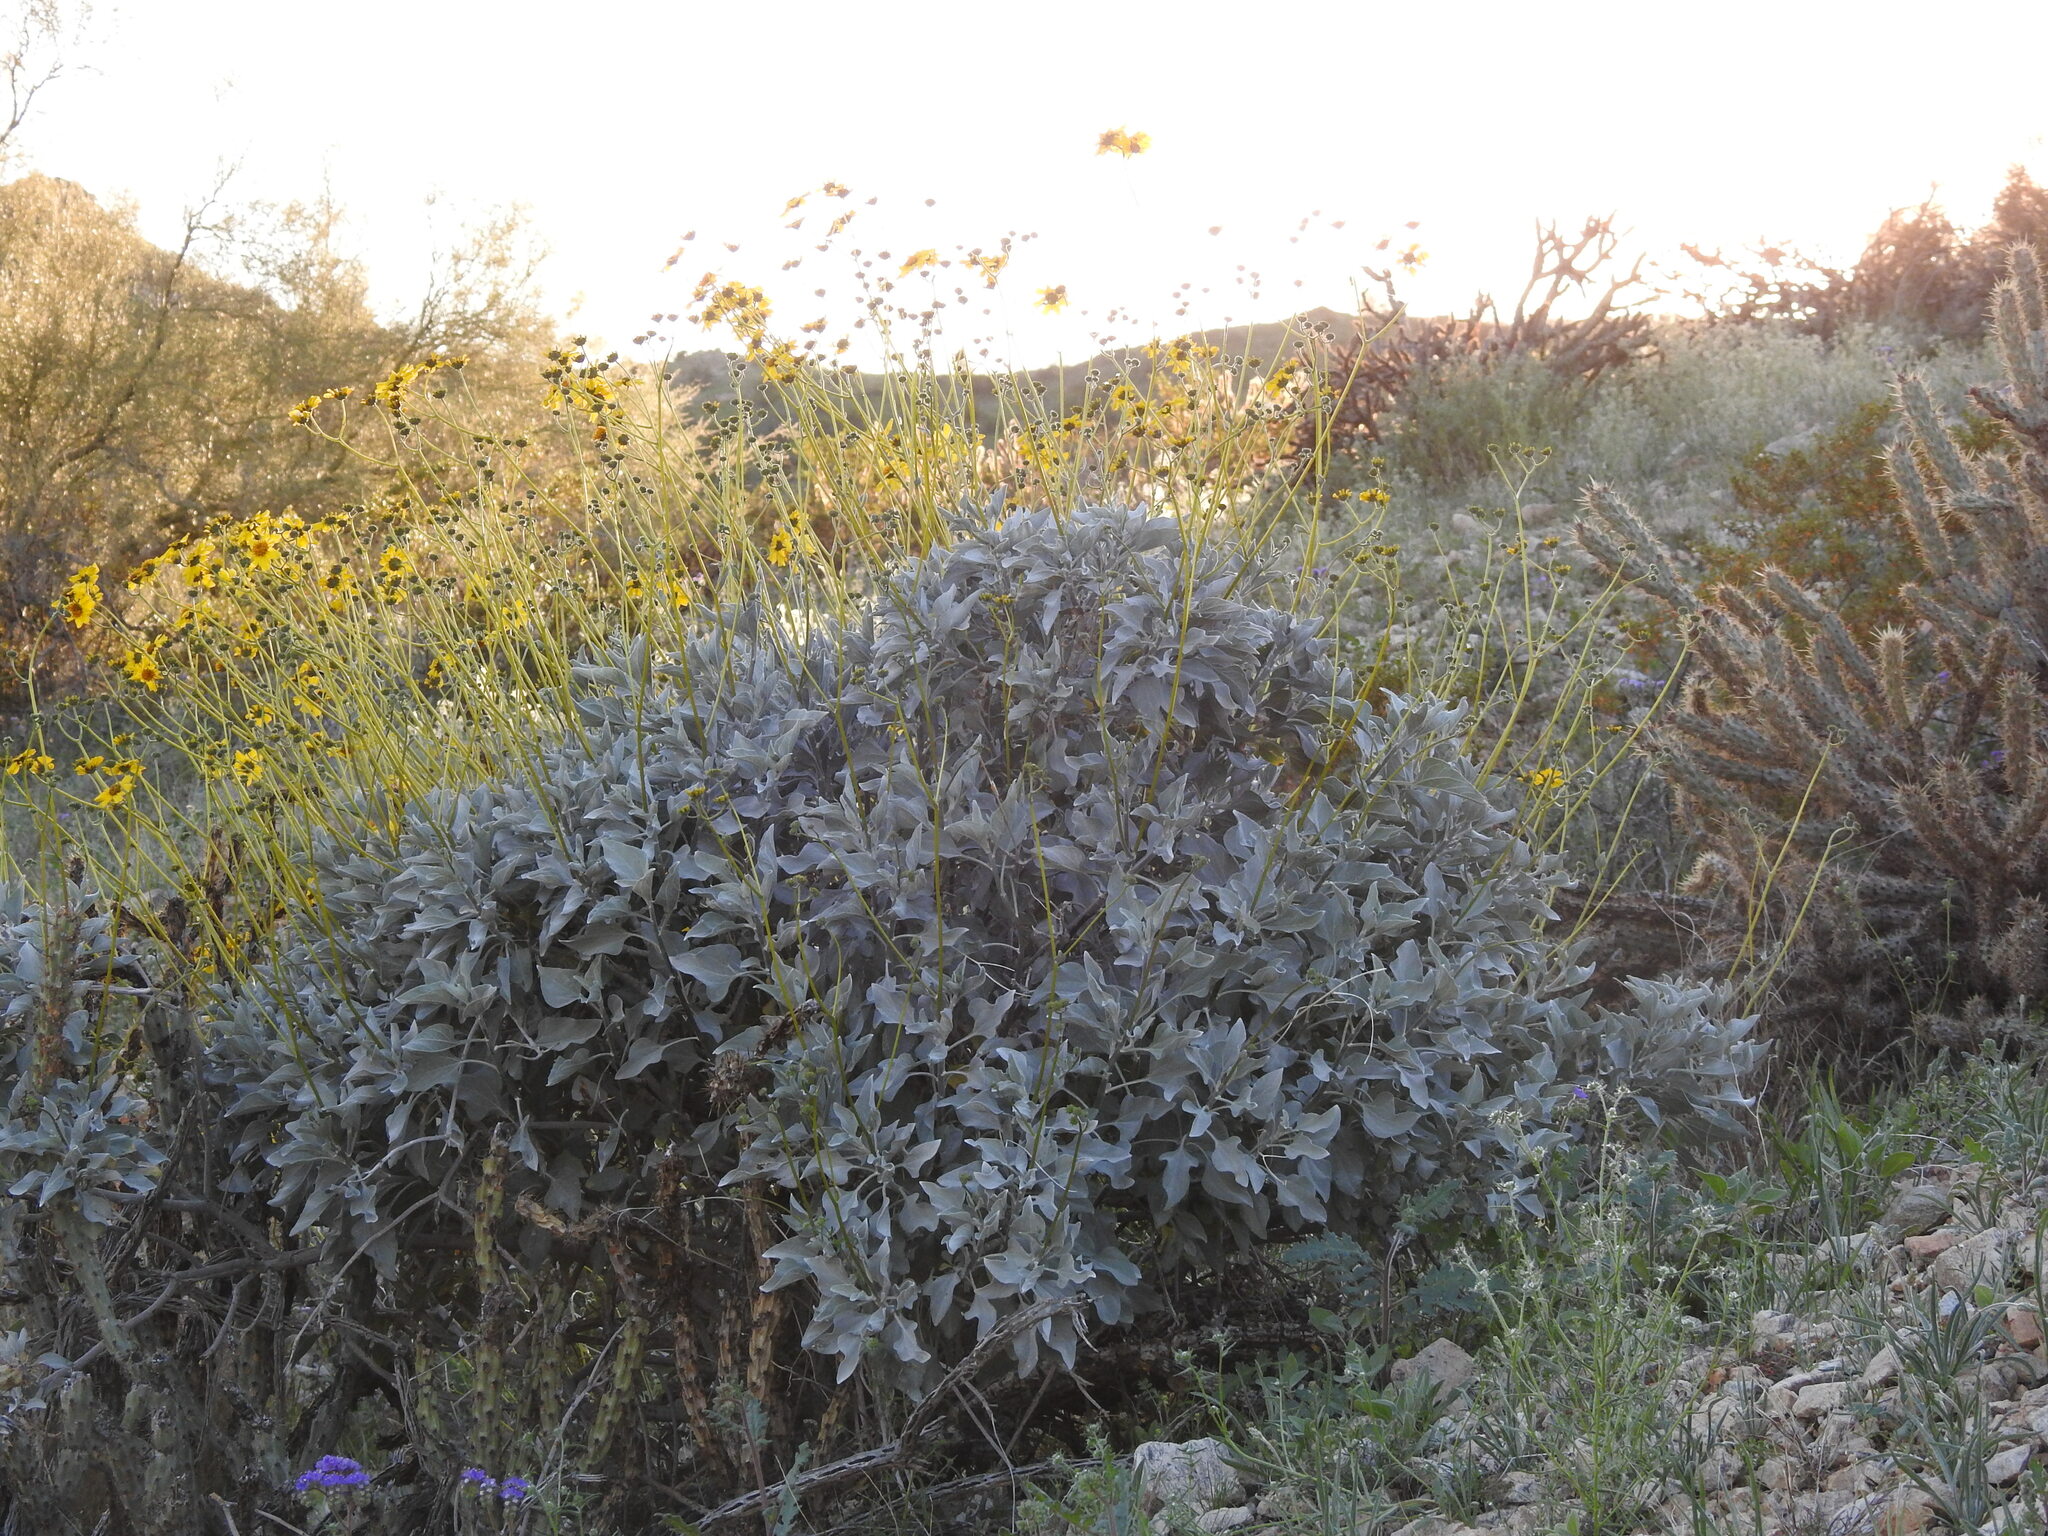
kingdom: Plantae
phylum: Tracheophyta
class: Magnoliopsida
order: Asterales
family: Asteraceae
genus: Encelia
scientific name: Encelia farinosa
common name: Brittlebush
